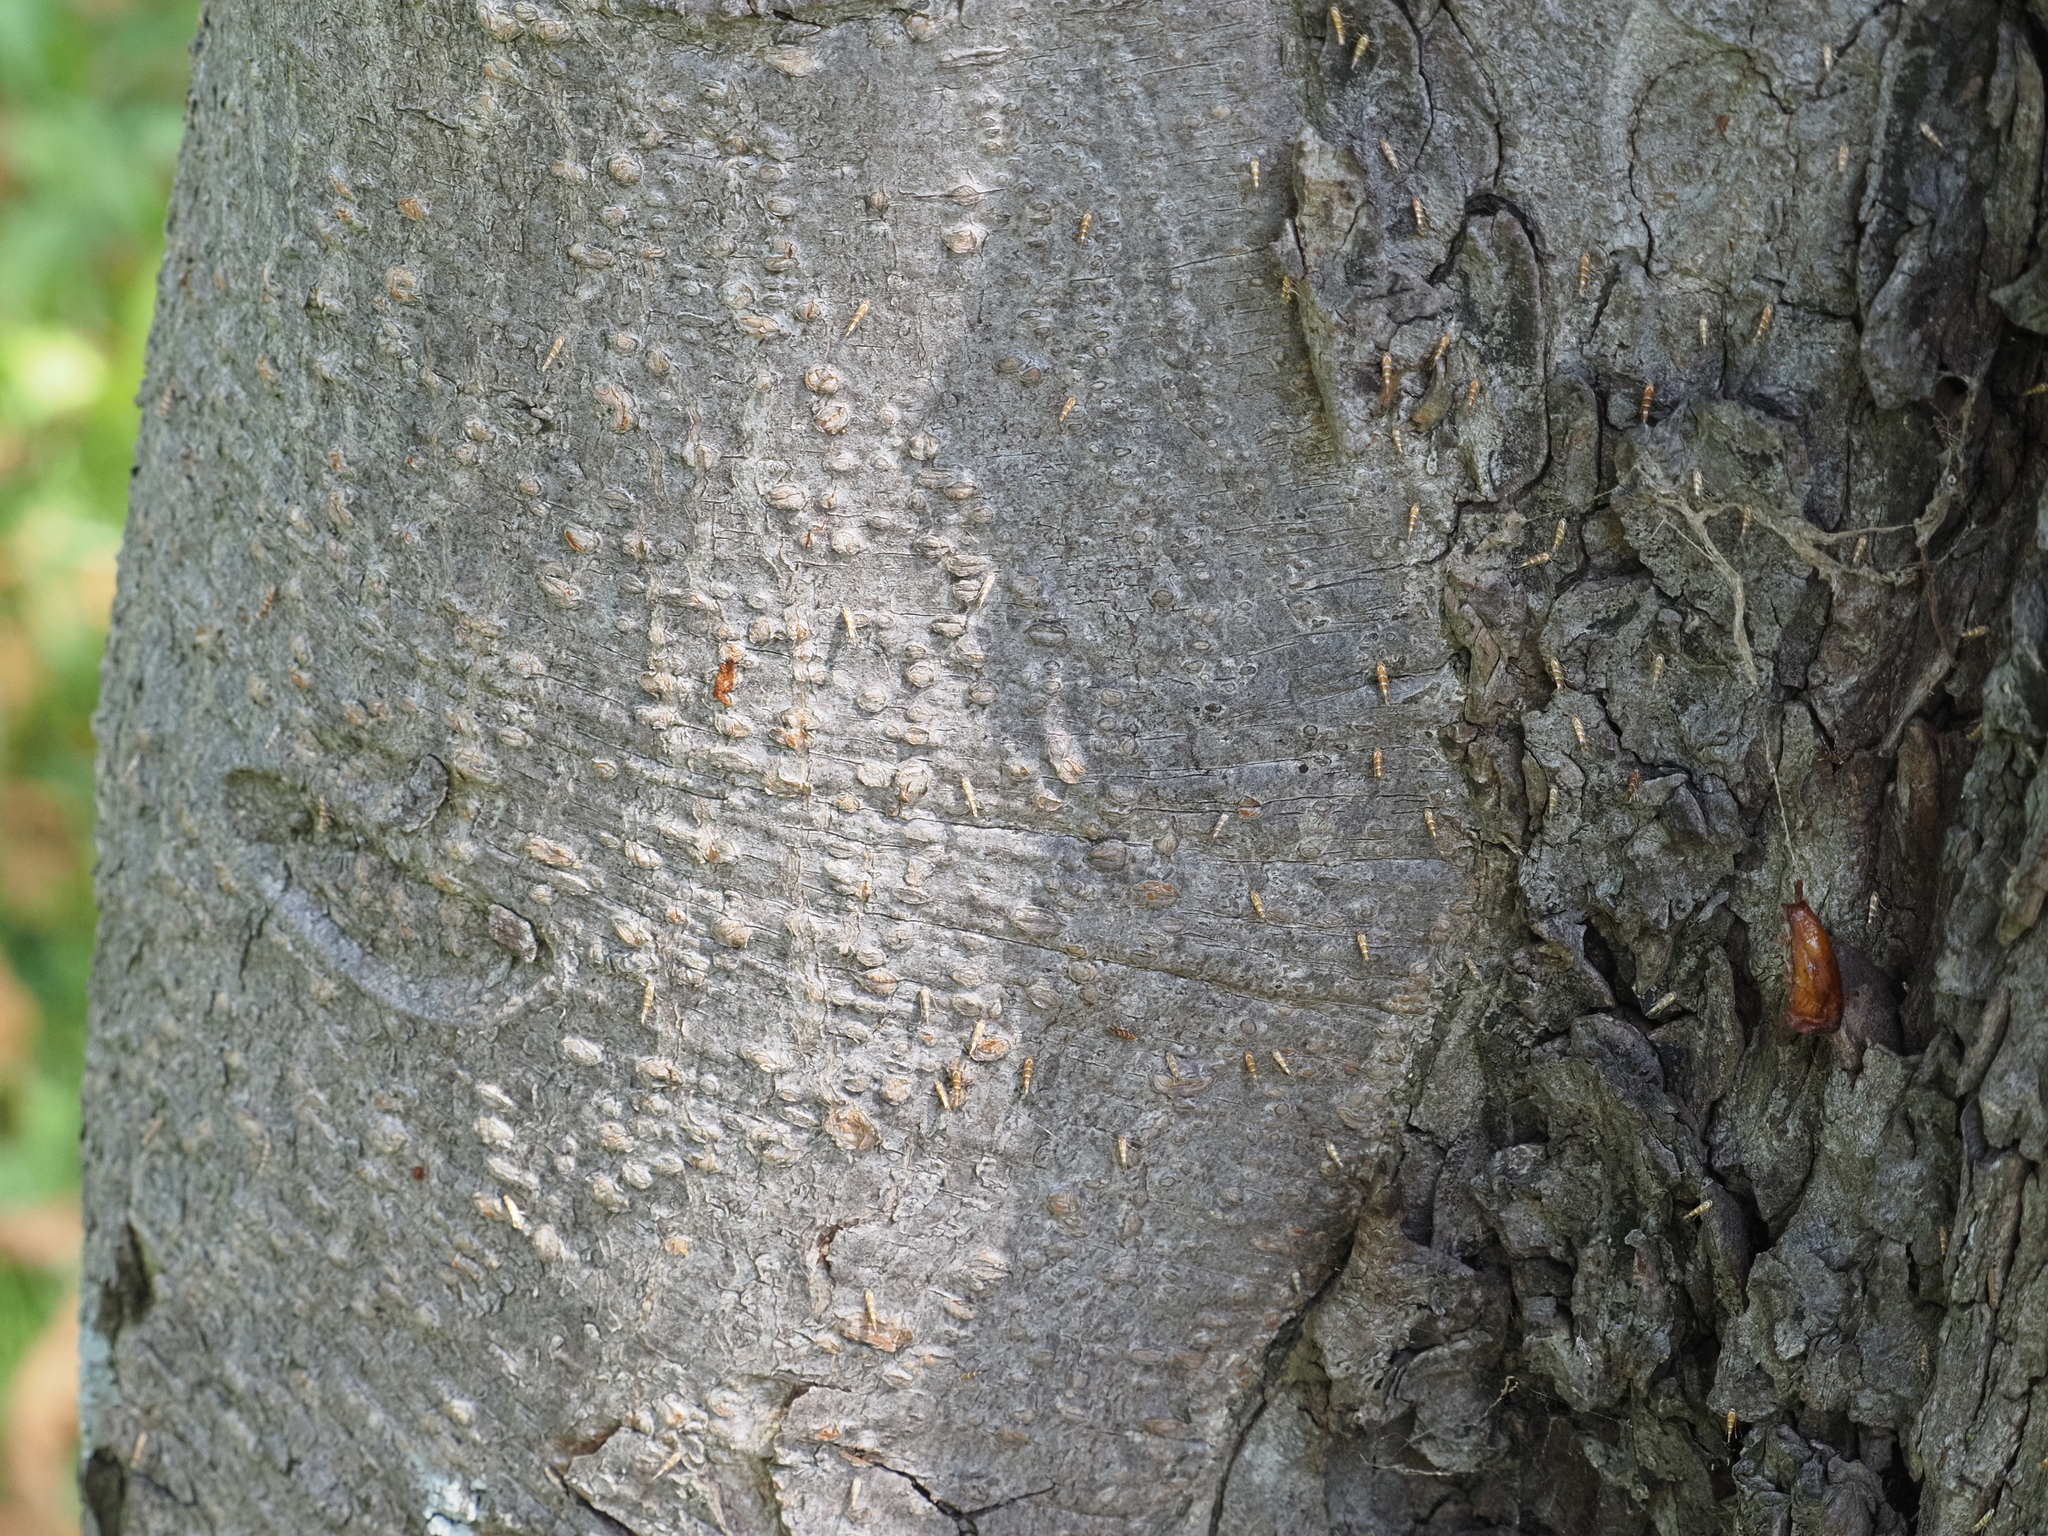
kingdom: Animalia
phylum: Arthropoda
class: Insecta
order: Lepidoptera
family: Gracillariidae
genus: Cameraria
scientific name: Cameraria ohridella
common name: Horse-chestnut leaf-miner
